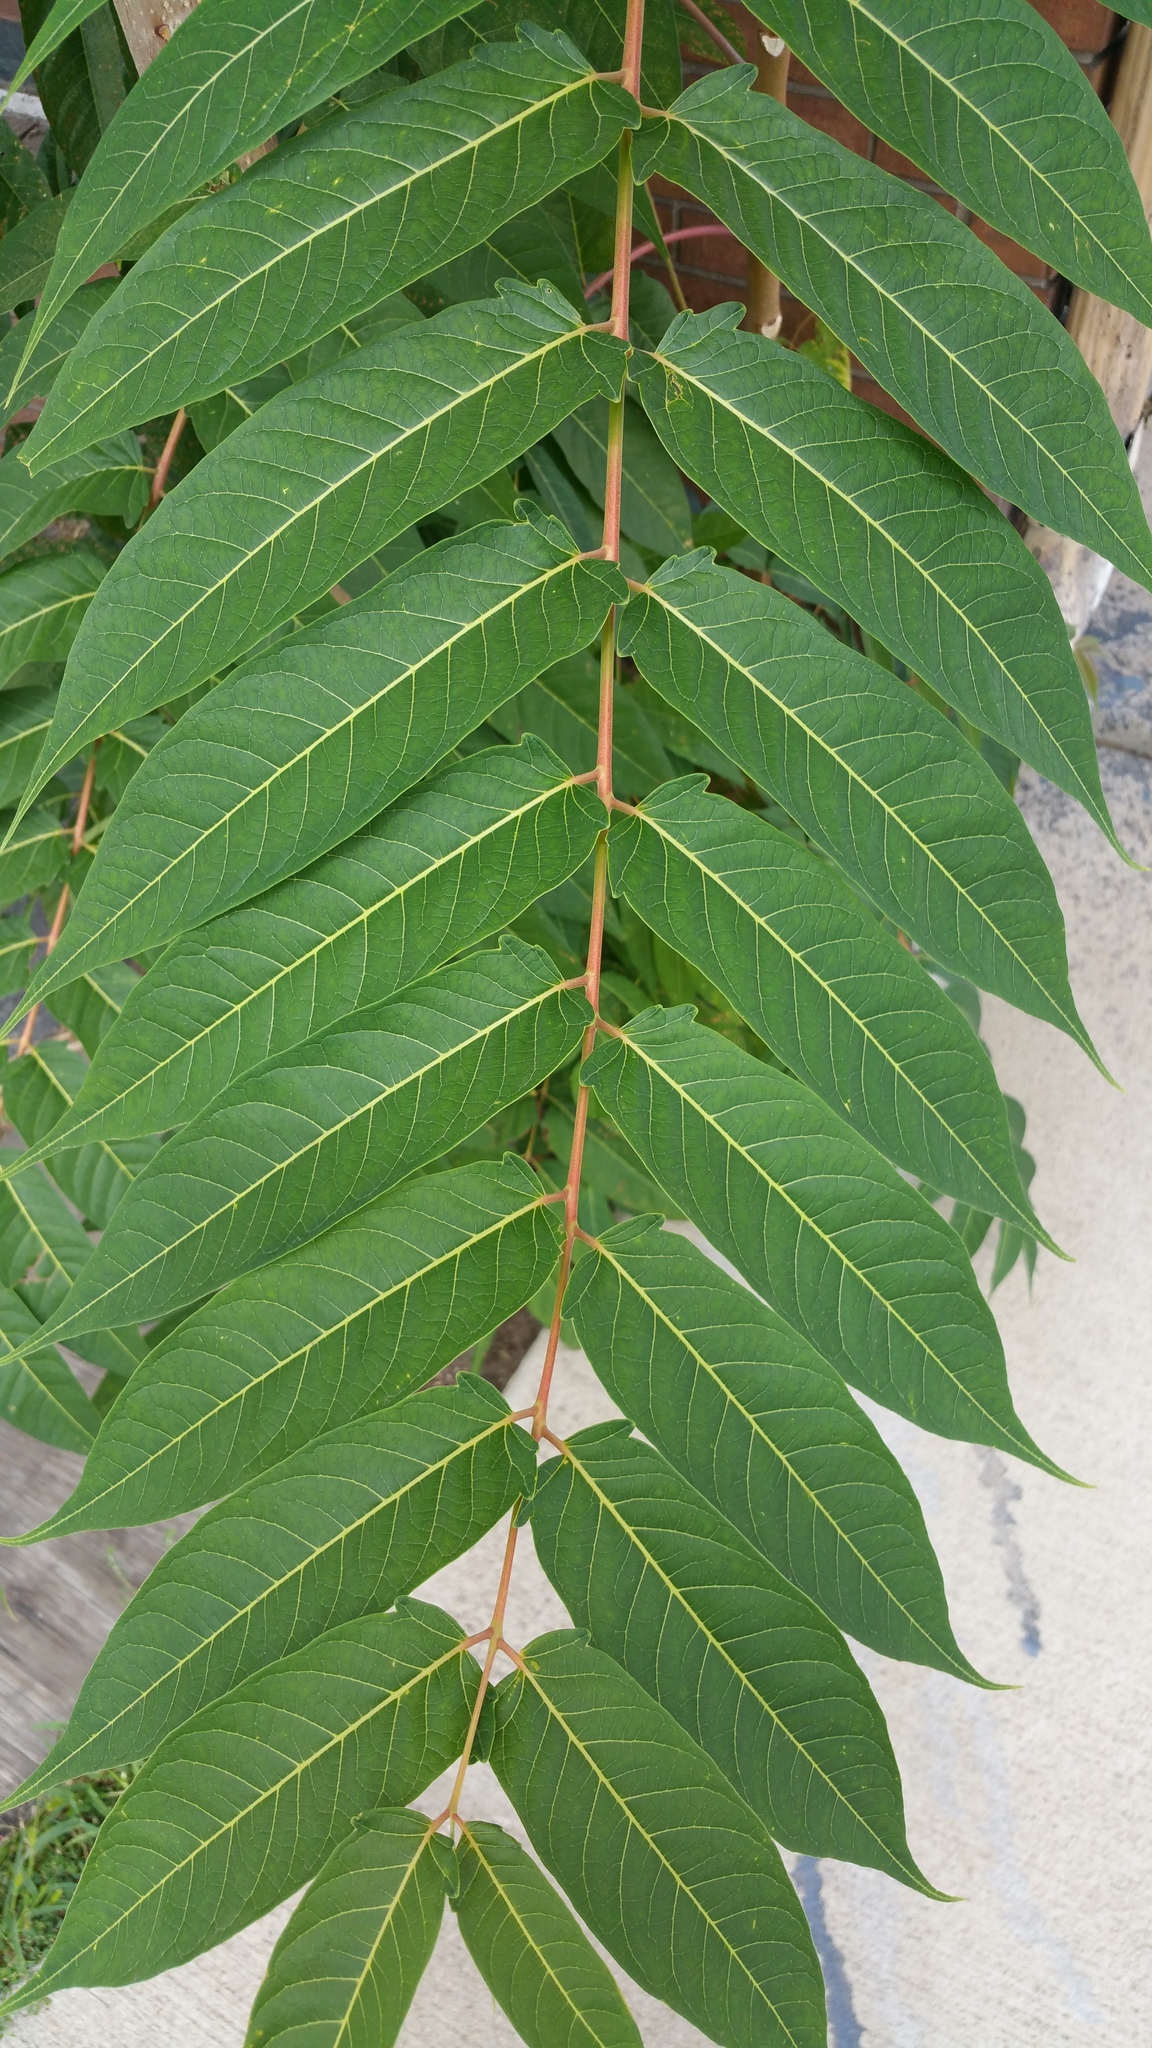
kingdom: Plantae
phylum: Tracheophyta
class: Magnoliopsida
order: Sapindales
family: Simaroubaceae
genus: Ailanthus
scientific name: Ailanthus altissima
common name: Tree-of-heaven
